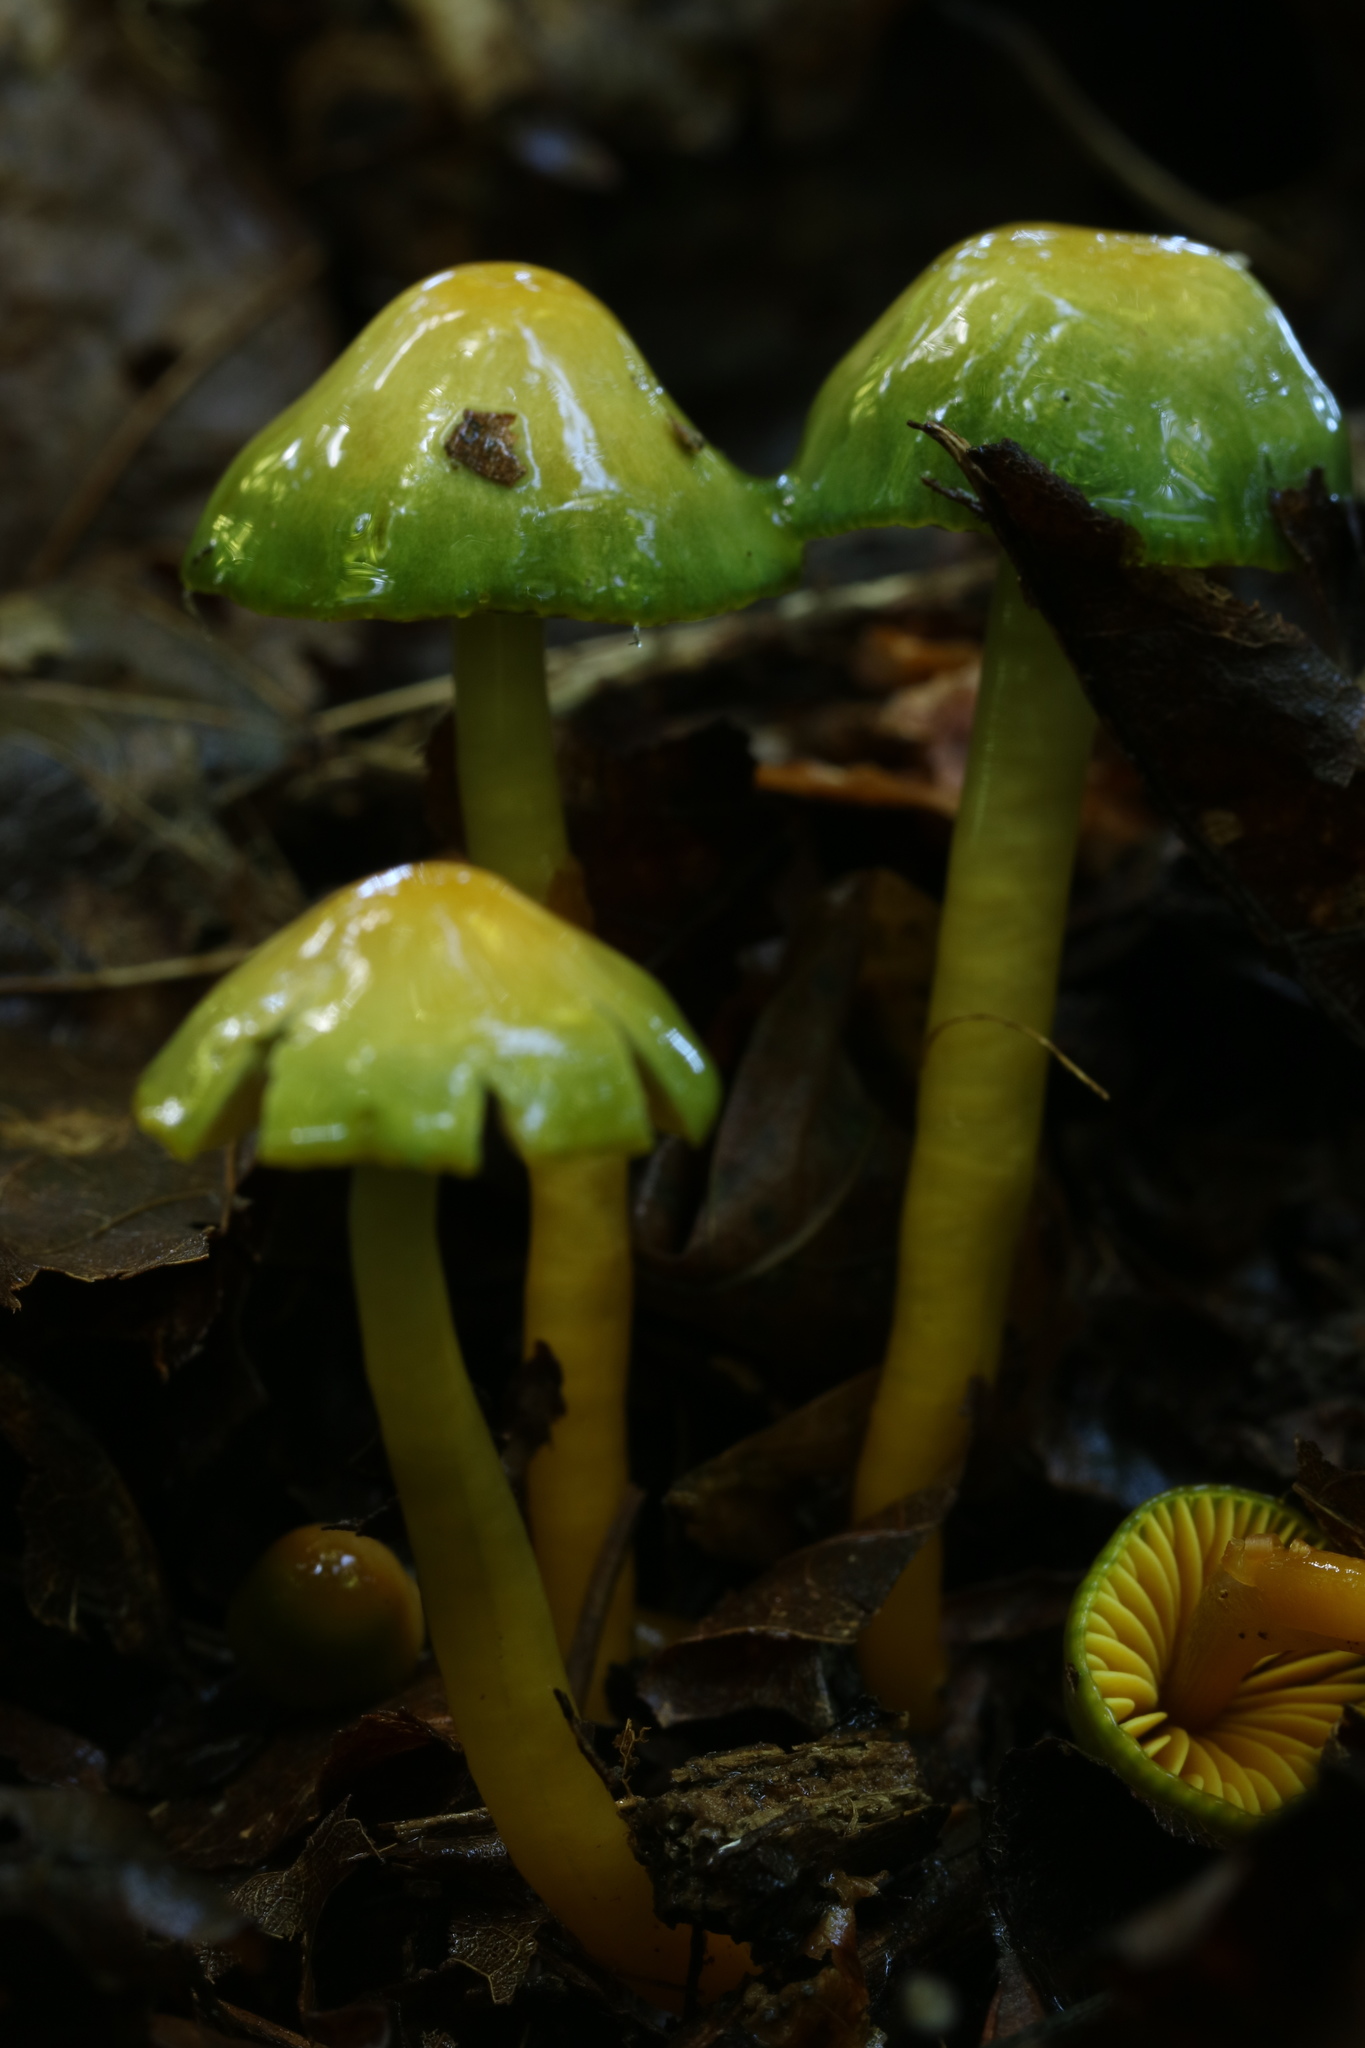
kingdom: Fungi
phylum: Basidiomycota
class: Agaricomycetes
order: Agaricales
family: Hygrophoraceae
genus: Gliophorus
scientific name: Gliophorus psittacinus
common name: Parrot wax-cap
